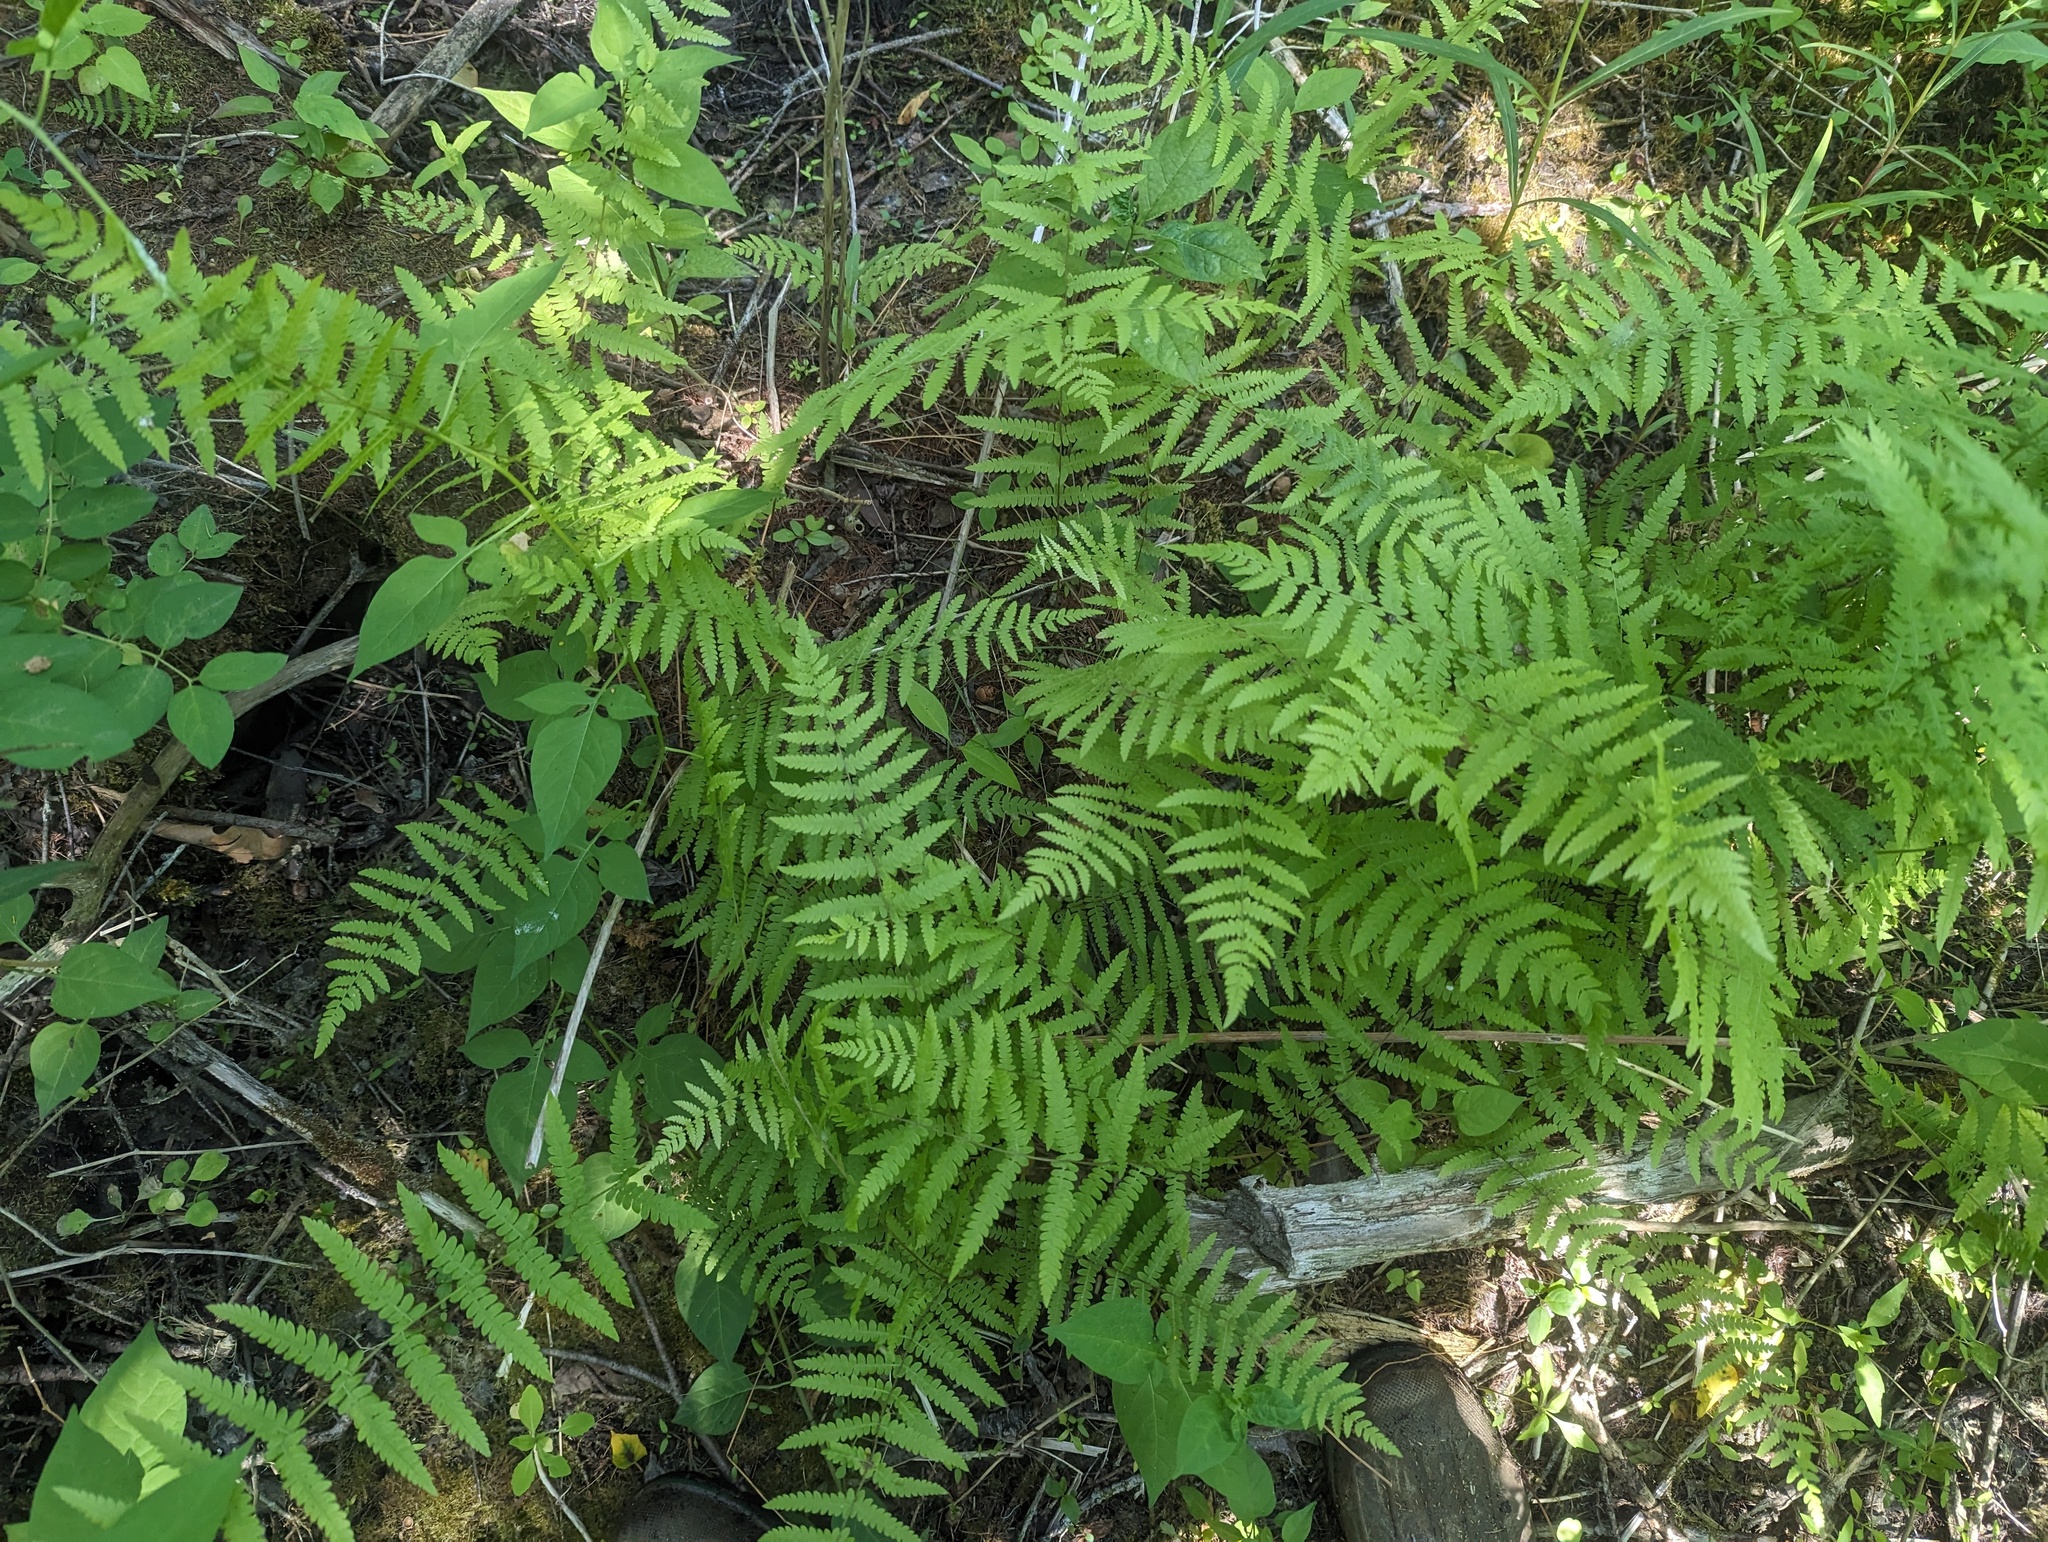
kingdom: Plantae
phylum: Tracheophyta
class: Polypodiopsida
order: Polypodiales
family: Thelypteridaceae
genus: Thelypteris
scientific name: Thelypteris palustris
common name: Marsh fern
